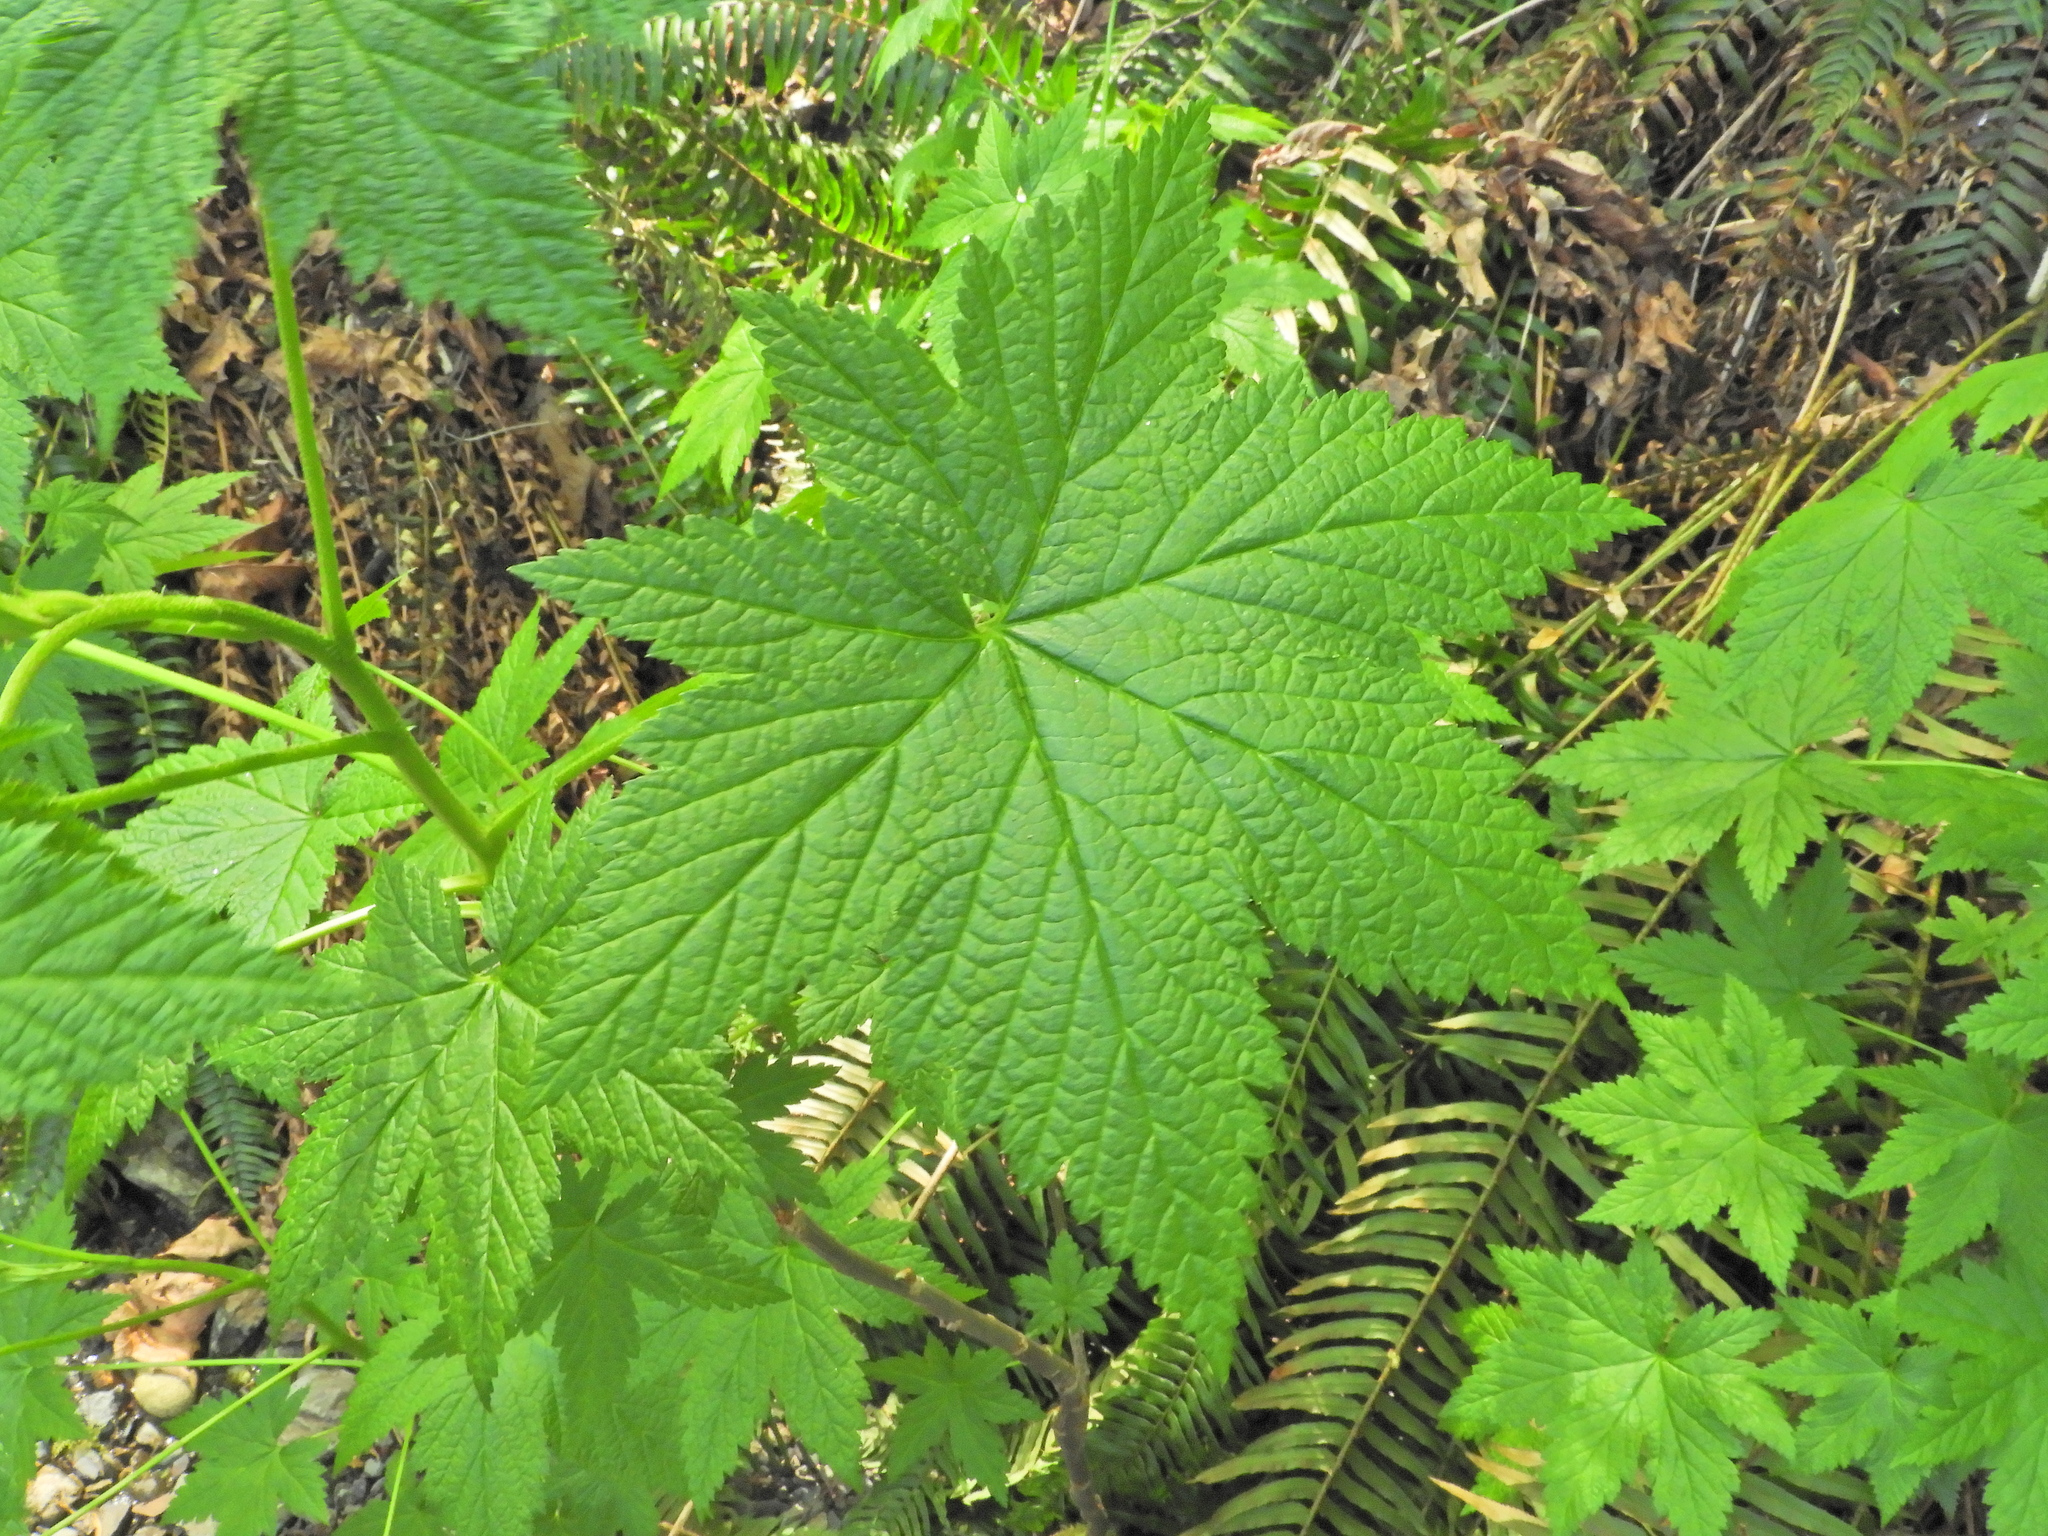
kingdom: Plantae
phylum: Tracheophyta
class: Magnoliopsida
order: Saxifragales
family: Grossulariaceae
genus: Ribes
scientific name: Ribes bracteosum
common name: California black currant
